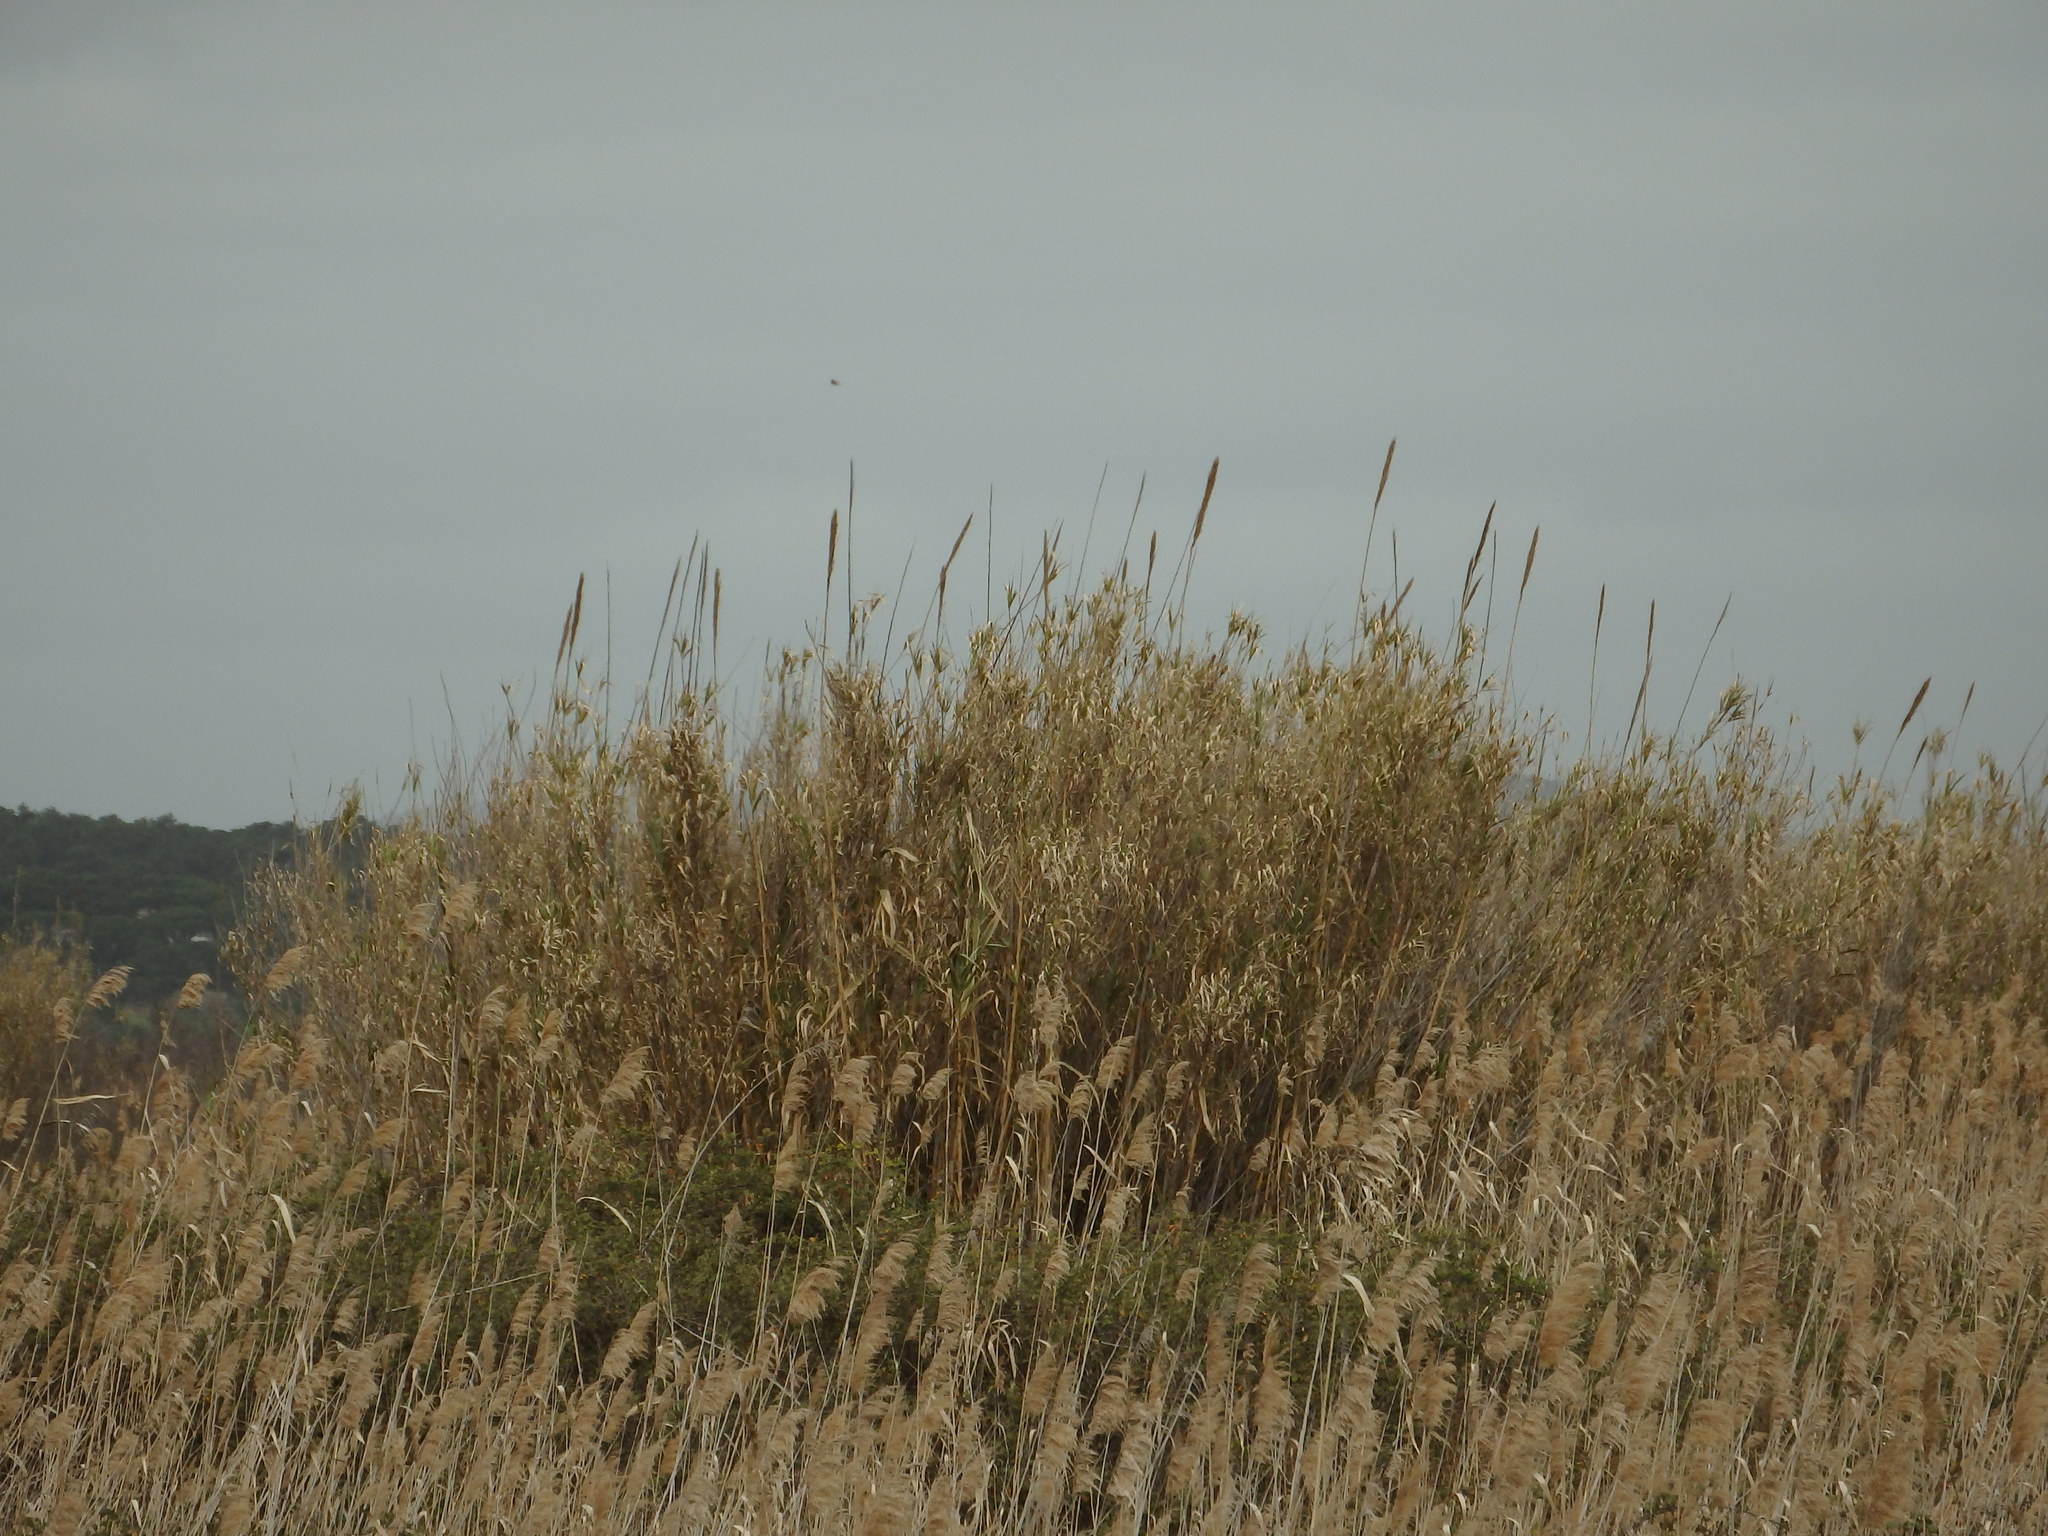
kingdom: Plantae
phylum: Tracheophyta
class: Liliopsida
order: Poales
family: Poaceae
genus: Arundo
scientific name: Arundo donax
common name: Giant reed
